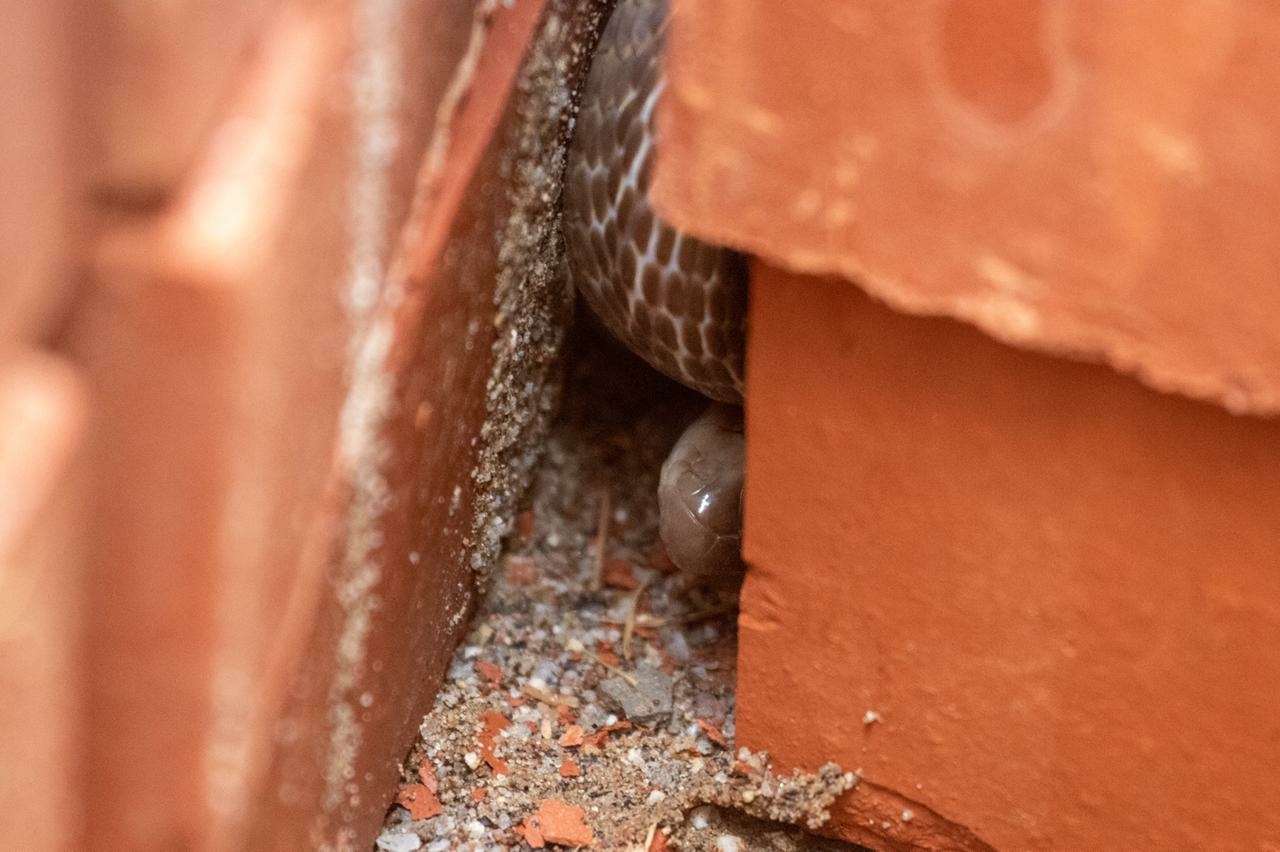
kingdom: Animalia
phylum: Chordata
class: Squamata
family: Elapidae
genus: Naja
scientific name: Naja naja
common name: Indian cobra
